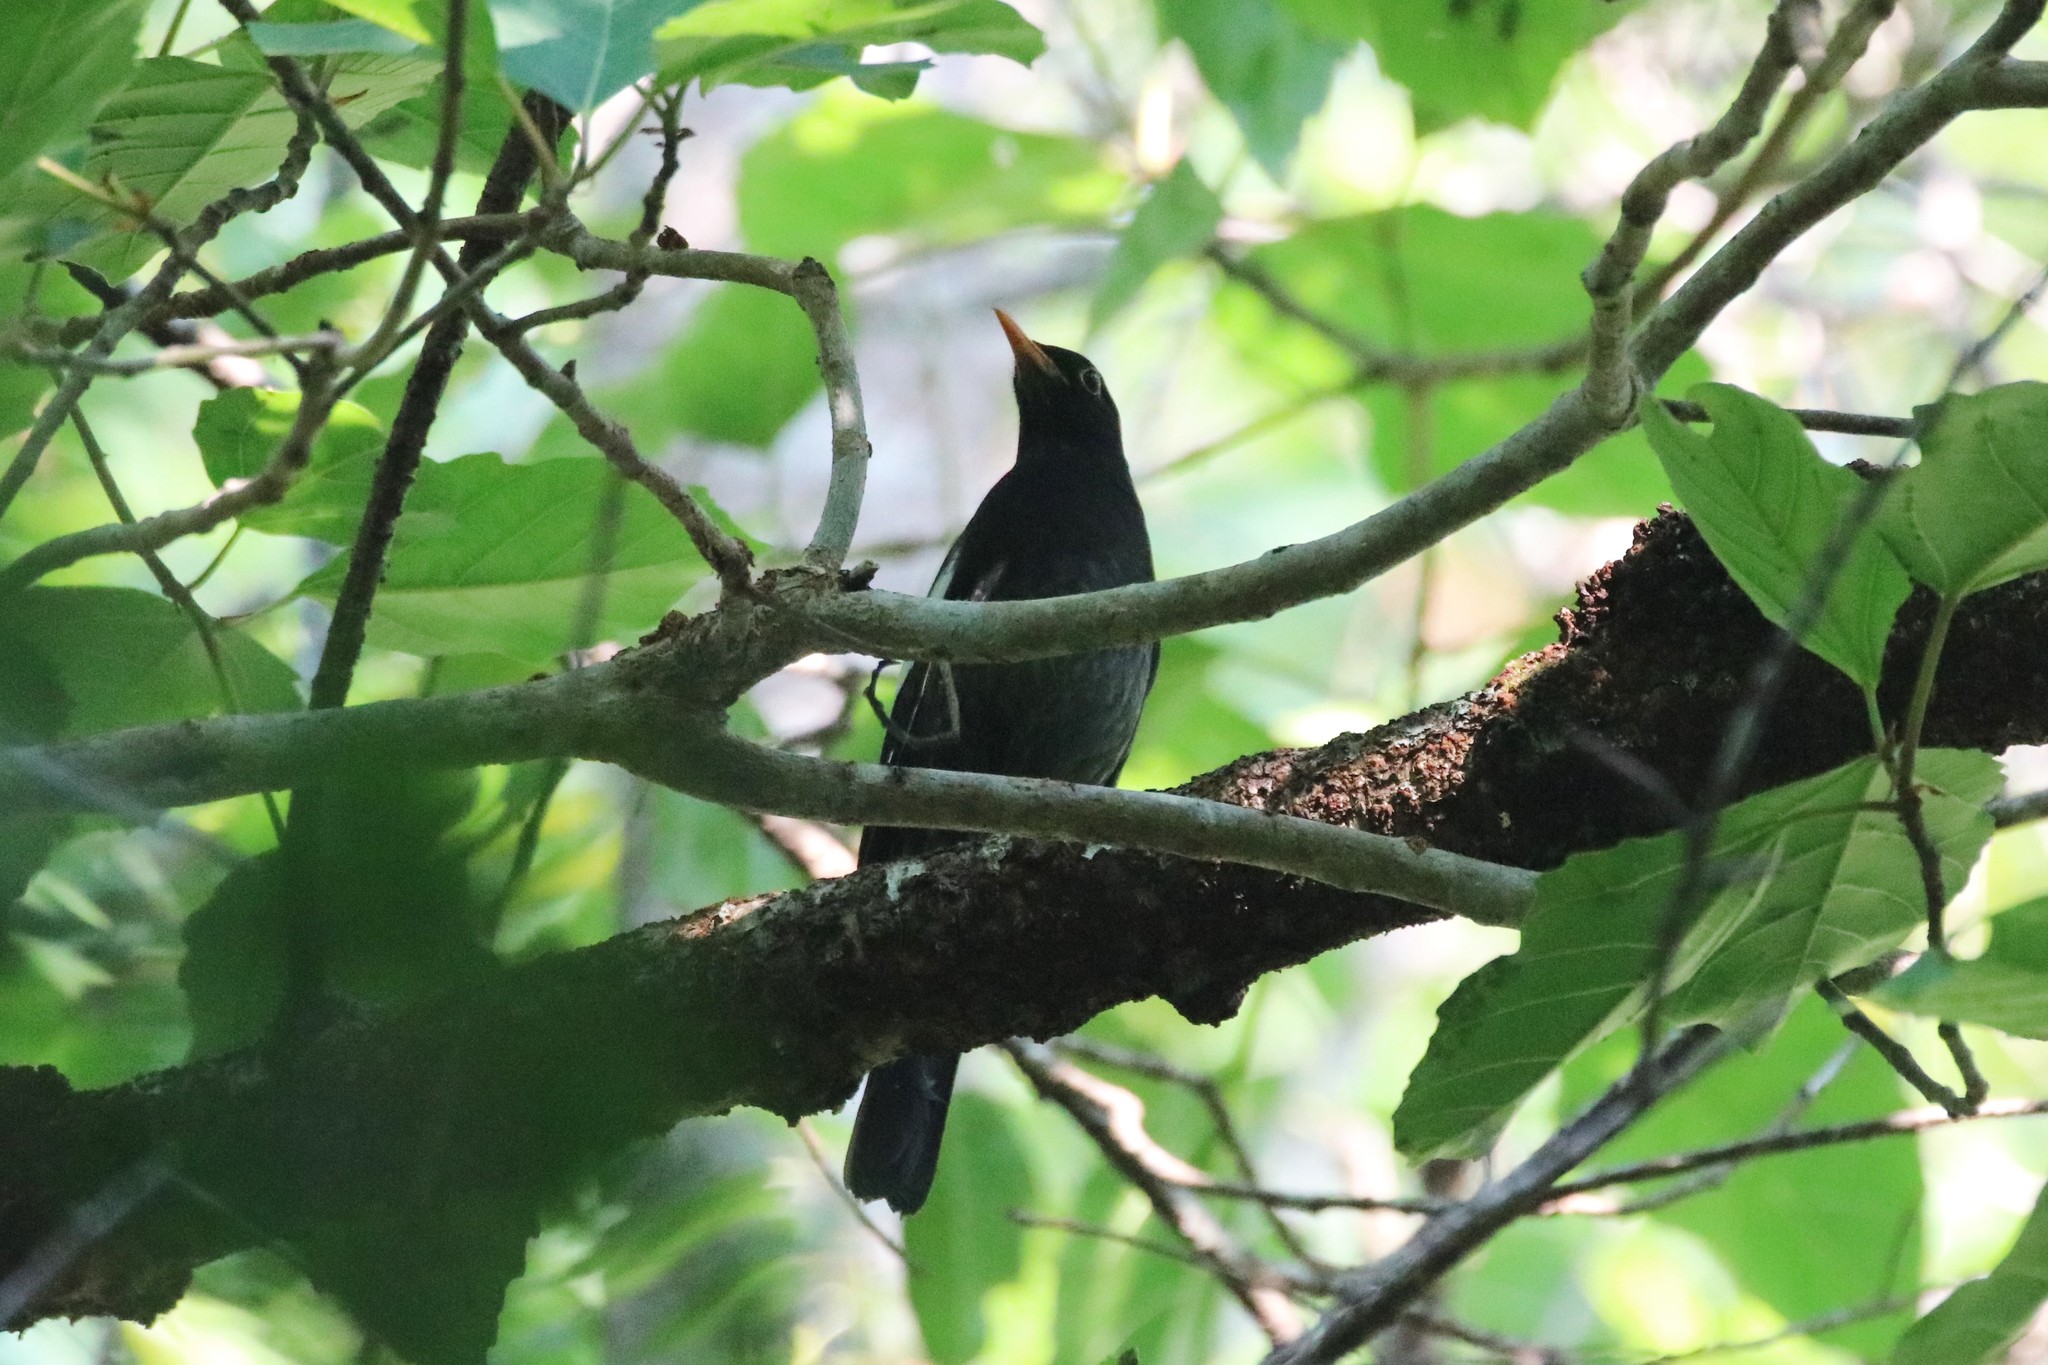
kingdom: Animalia
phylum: Chordata
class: Aves
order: Passeriformes
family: Turdidae
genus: Turdus
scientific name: Turdus boulboul
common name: Grey-winged blackbird
